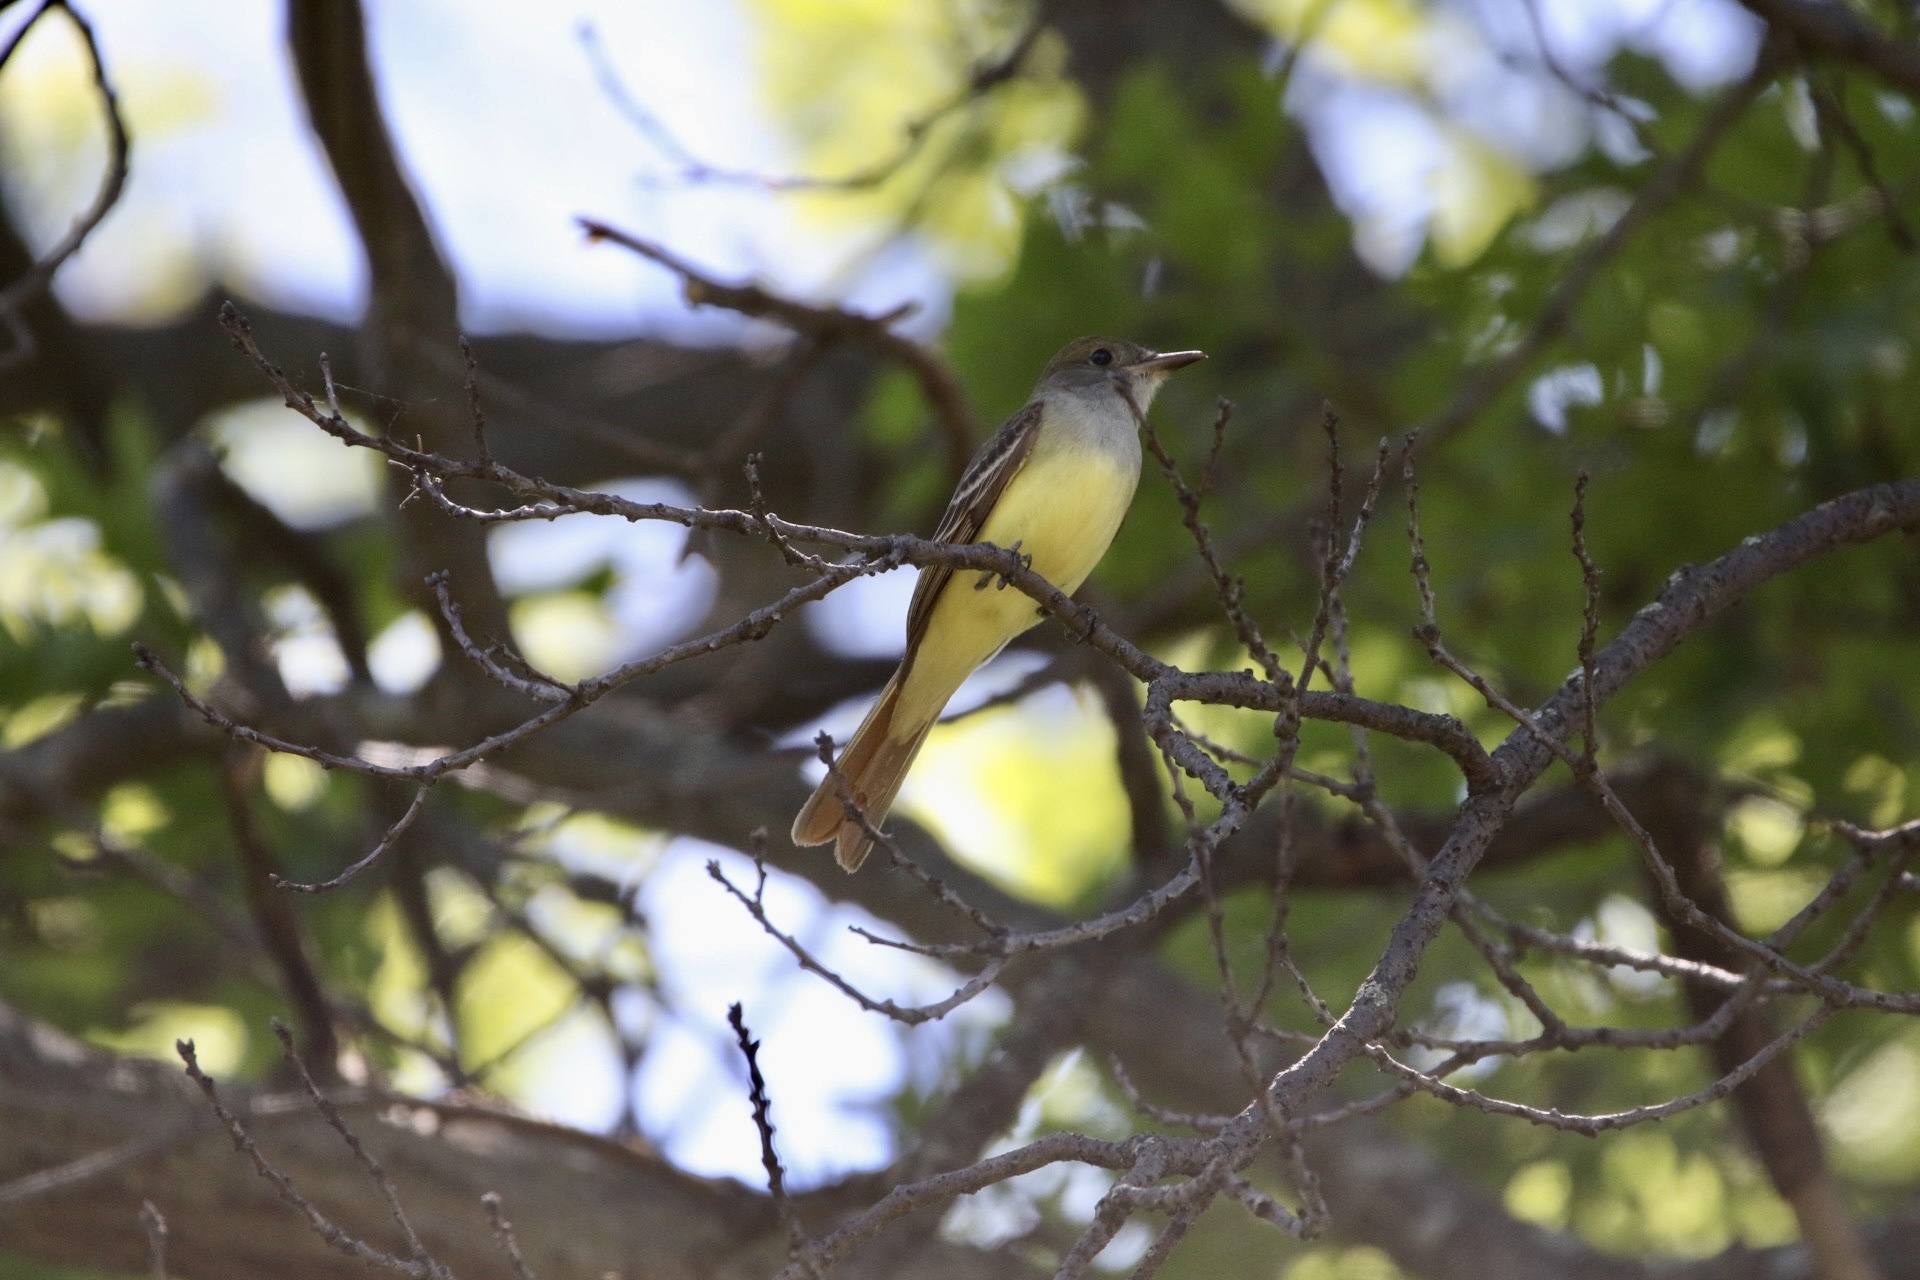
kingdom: Animalia
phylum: Chordata
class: Aves
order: Passeriformes
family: Tyrannidae
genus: Myiarchus
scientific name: Myiarchus crinitus
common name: Great crested flycatcher
